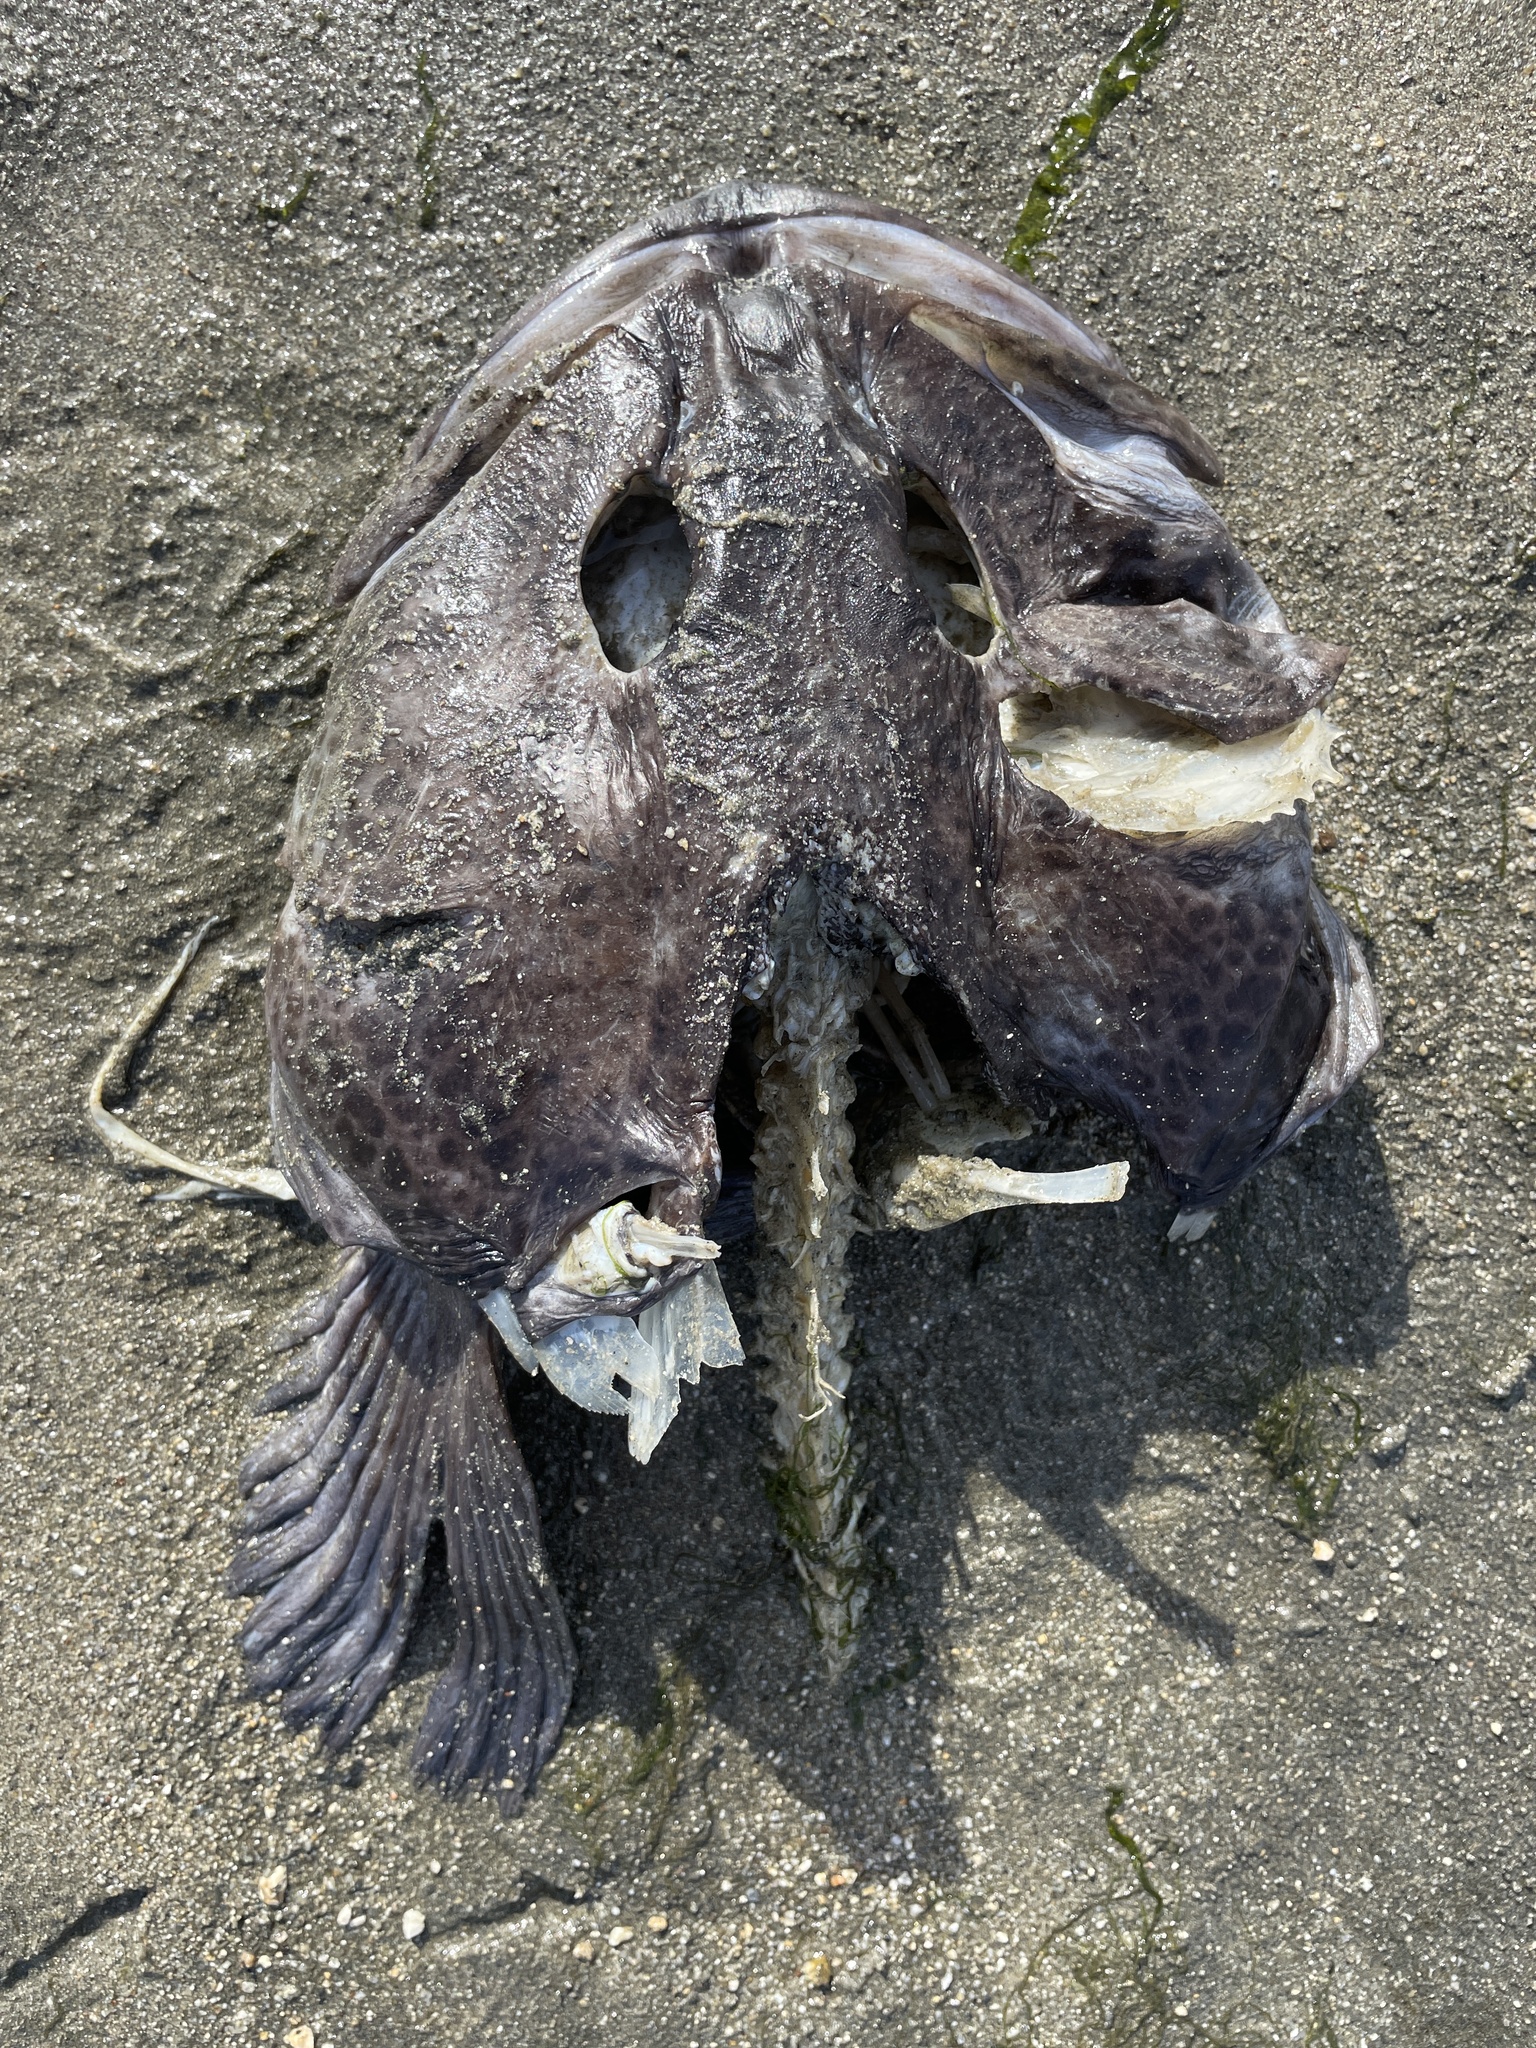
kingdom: Animalia
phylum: Chordata
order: Scorpaeniformes
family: Hexagrammidae
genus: Ophiodon
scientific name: Ophiodon elongatus
